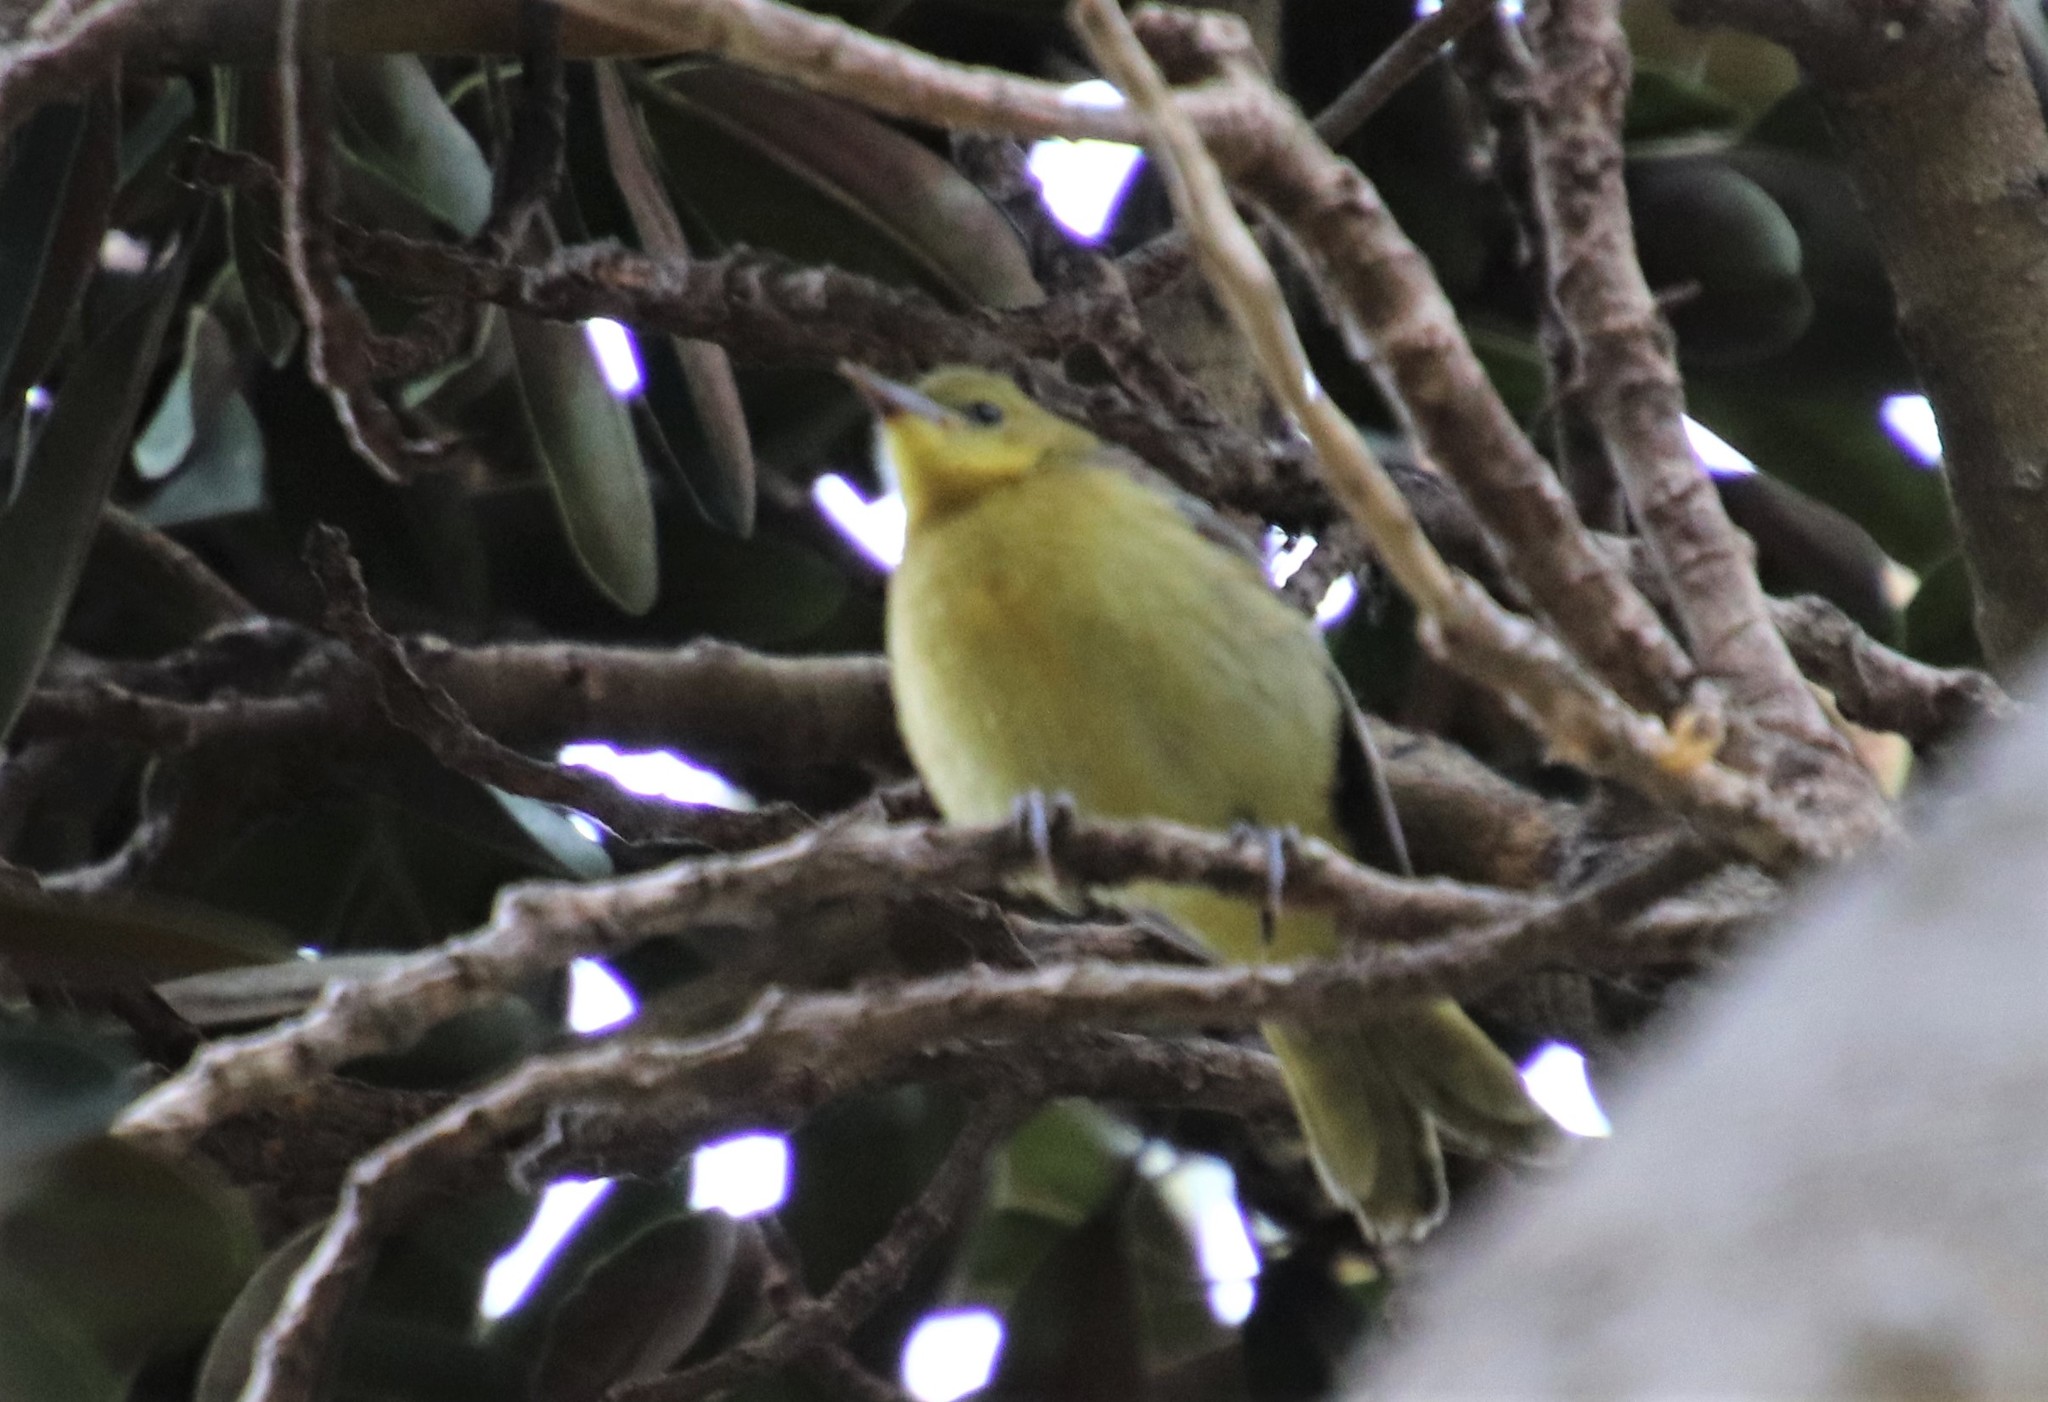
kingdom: Animalia
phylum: Chordata
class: Aves
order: Passeriformes
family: Icteridae
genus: Icterus
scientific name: Icterus cucullatus
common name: Hooded oriole
